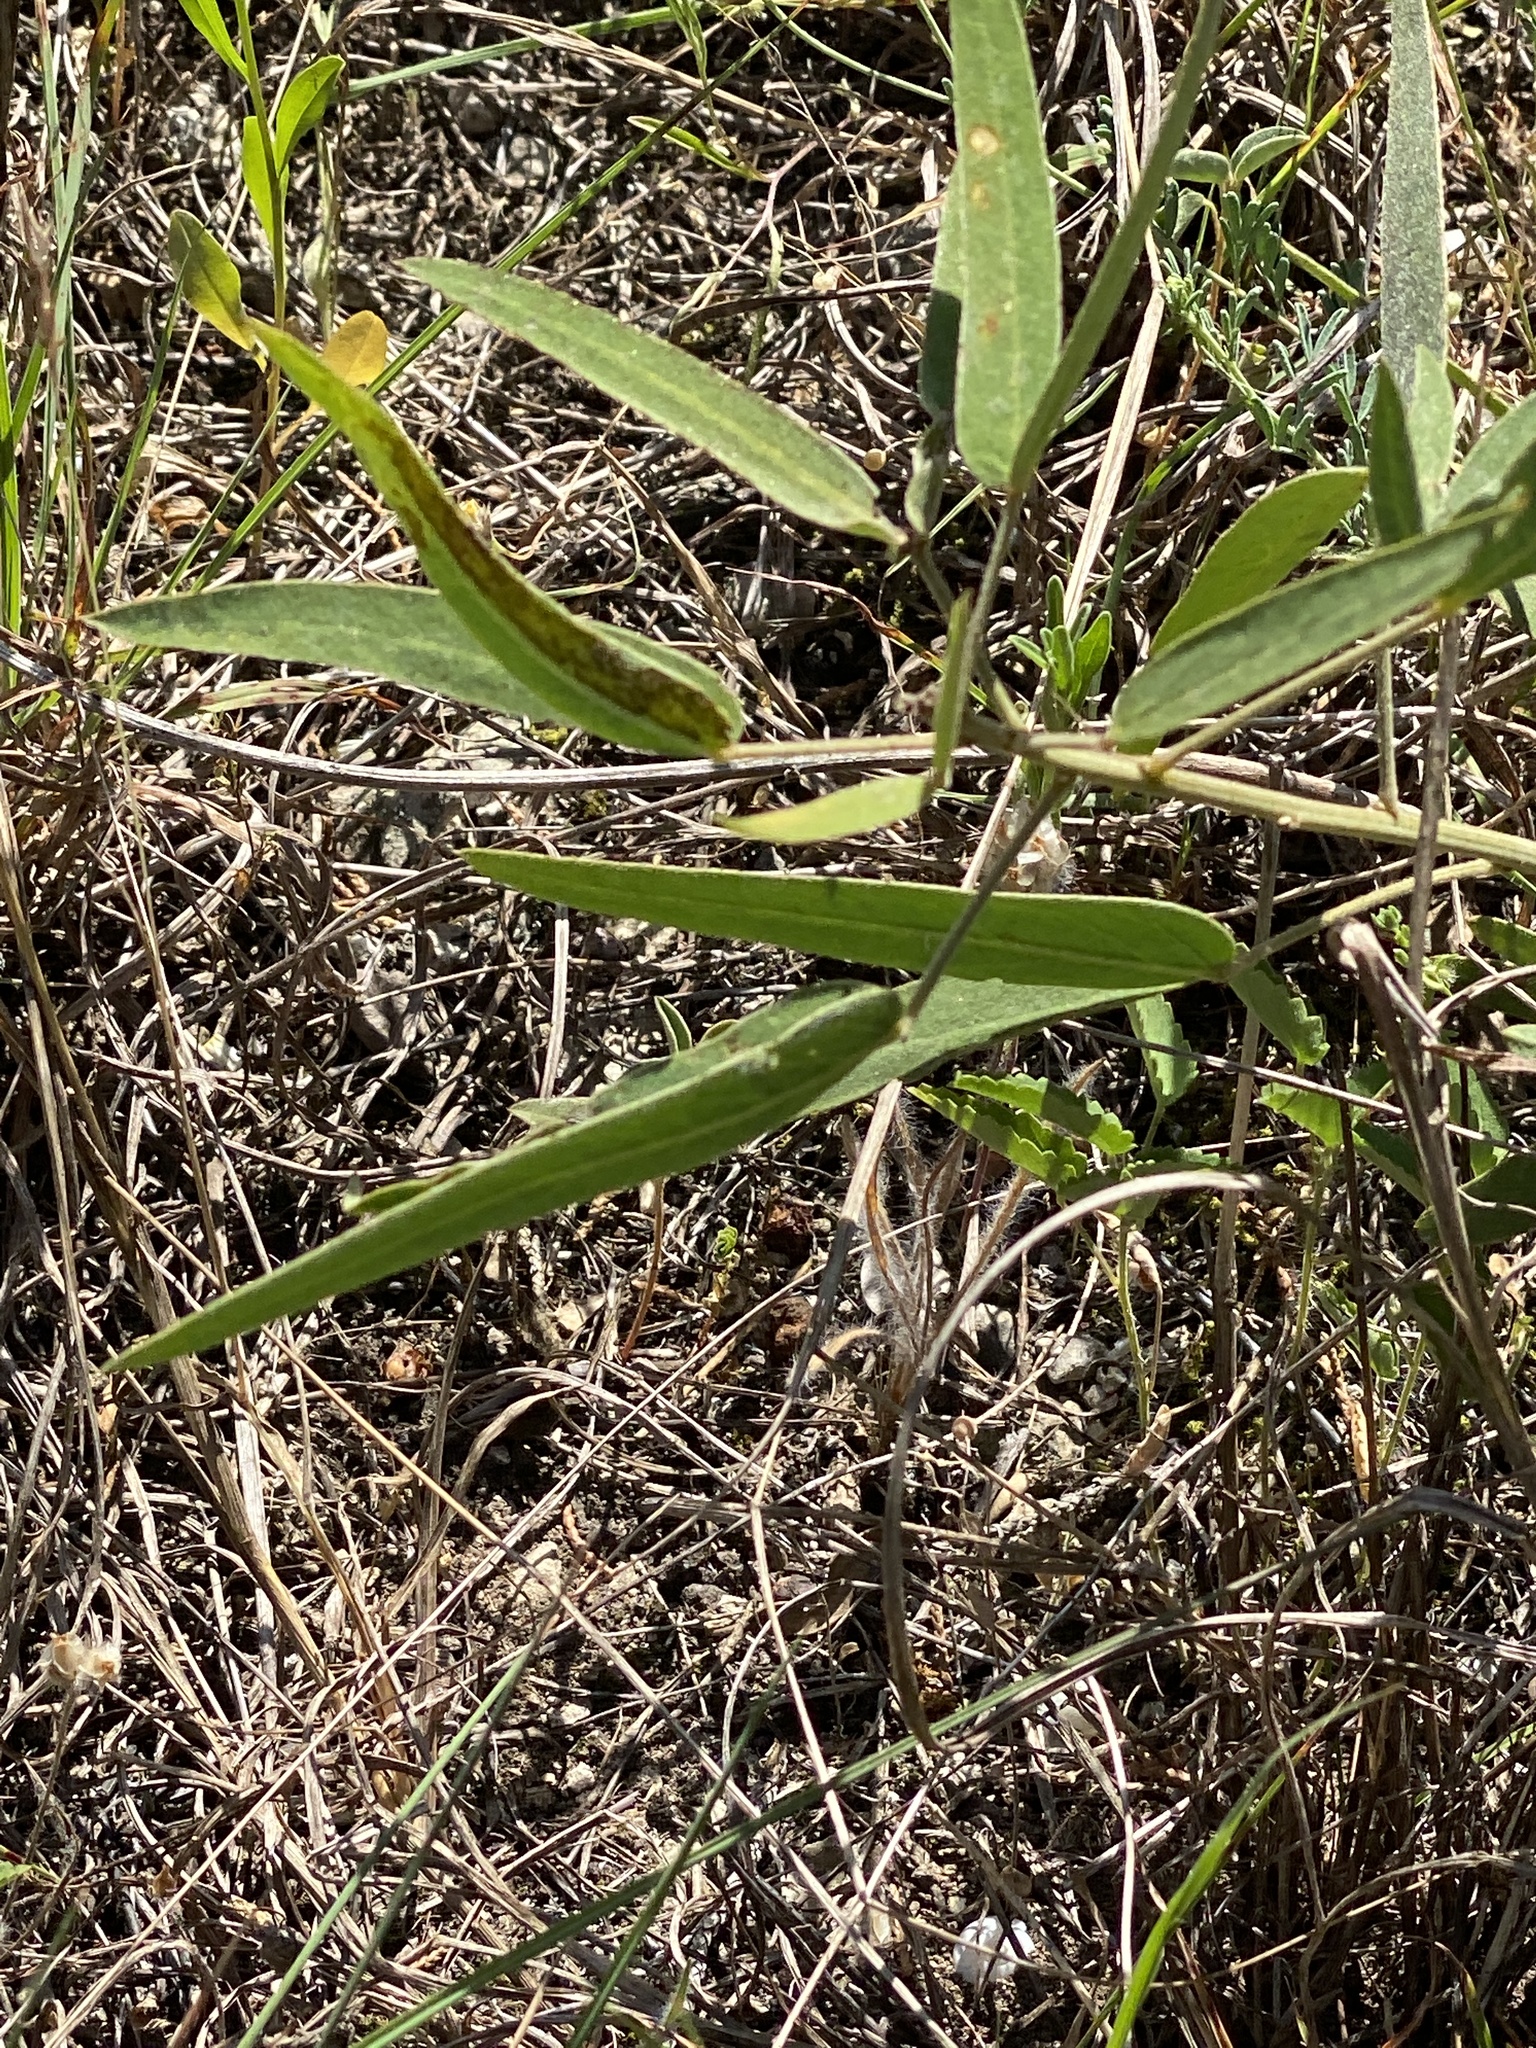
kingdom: Plantae
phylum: Tracheophyta
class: Magnoliopsida
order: Fabales
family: Fabaceae
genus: Senna
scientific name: Senna roemeriana
